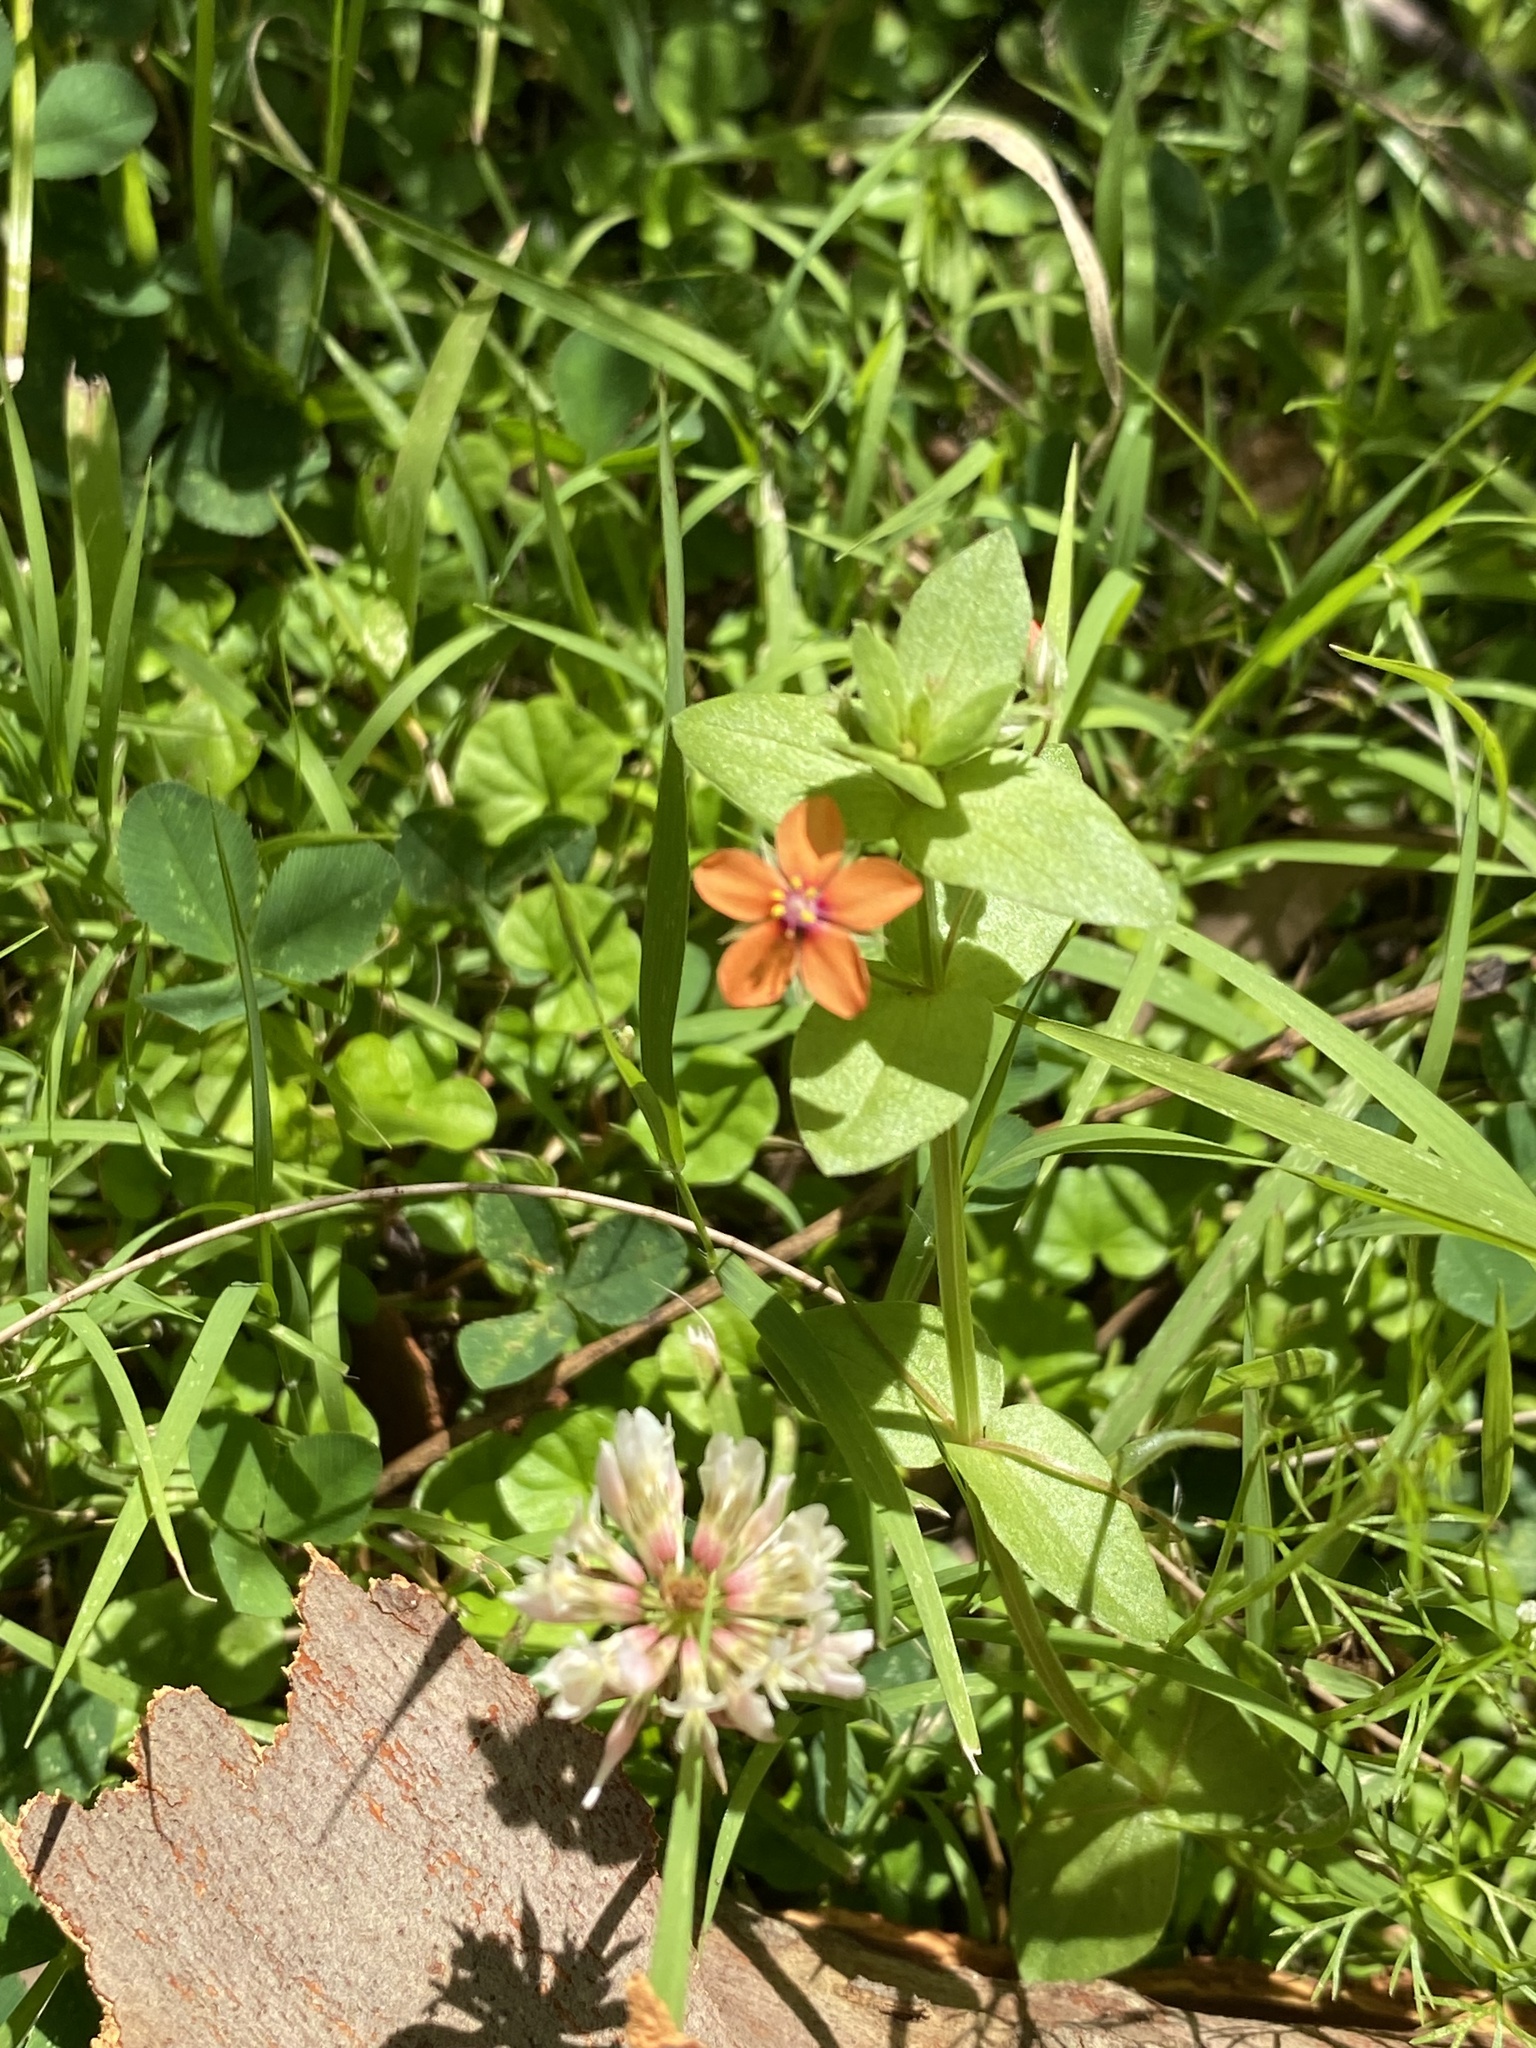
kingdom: Plantae
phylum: Tracheophyta
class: Magnoliopsida
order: Ericales
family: Primulaceae
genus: Lysimachia
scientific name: Lysimachia arvensis
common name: Scarlet pimpernel
